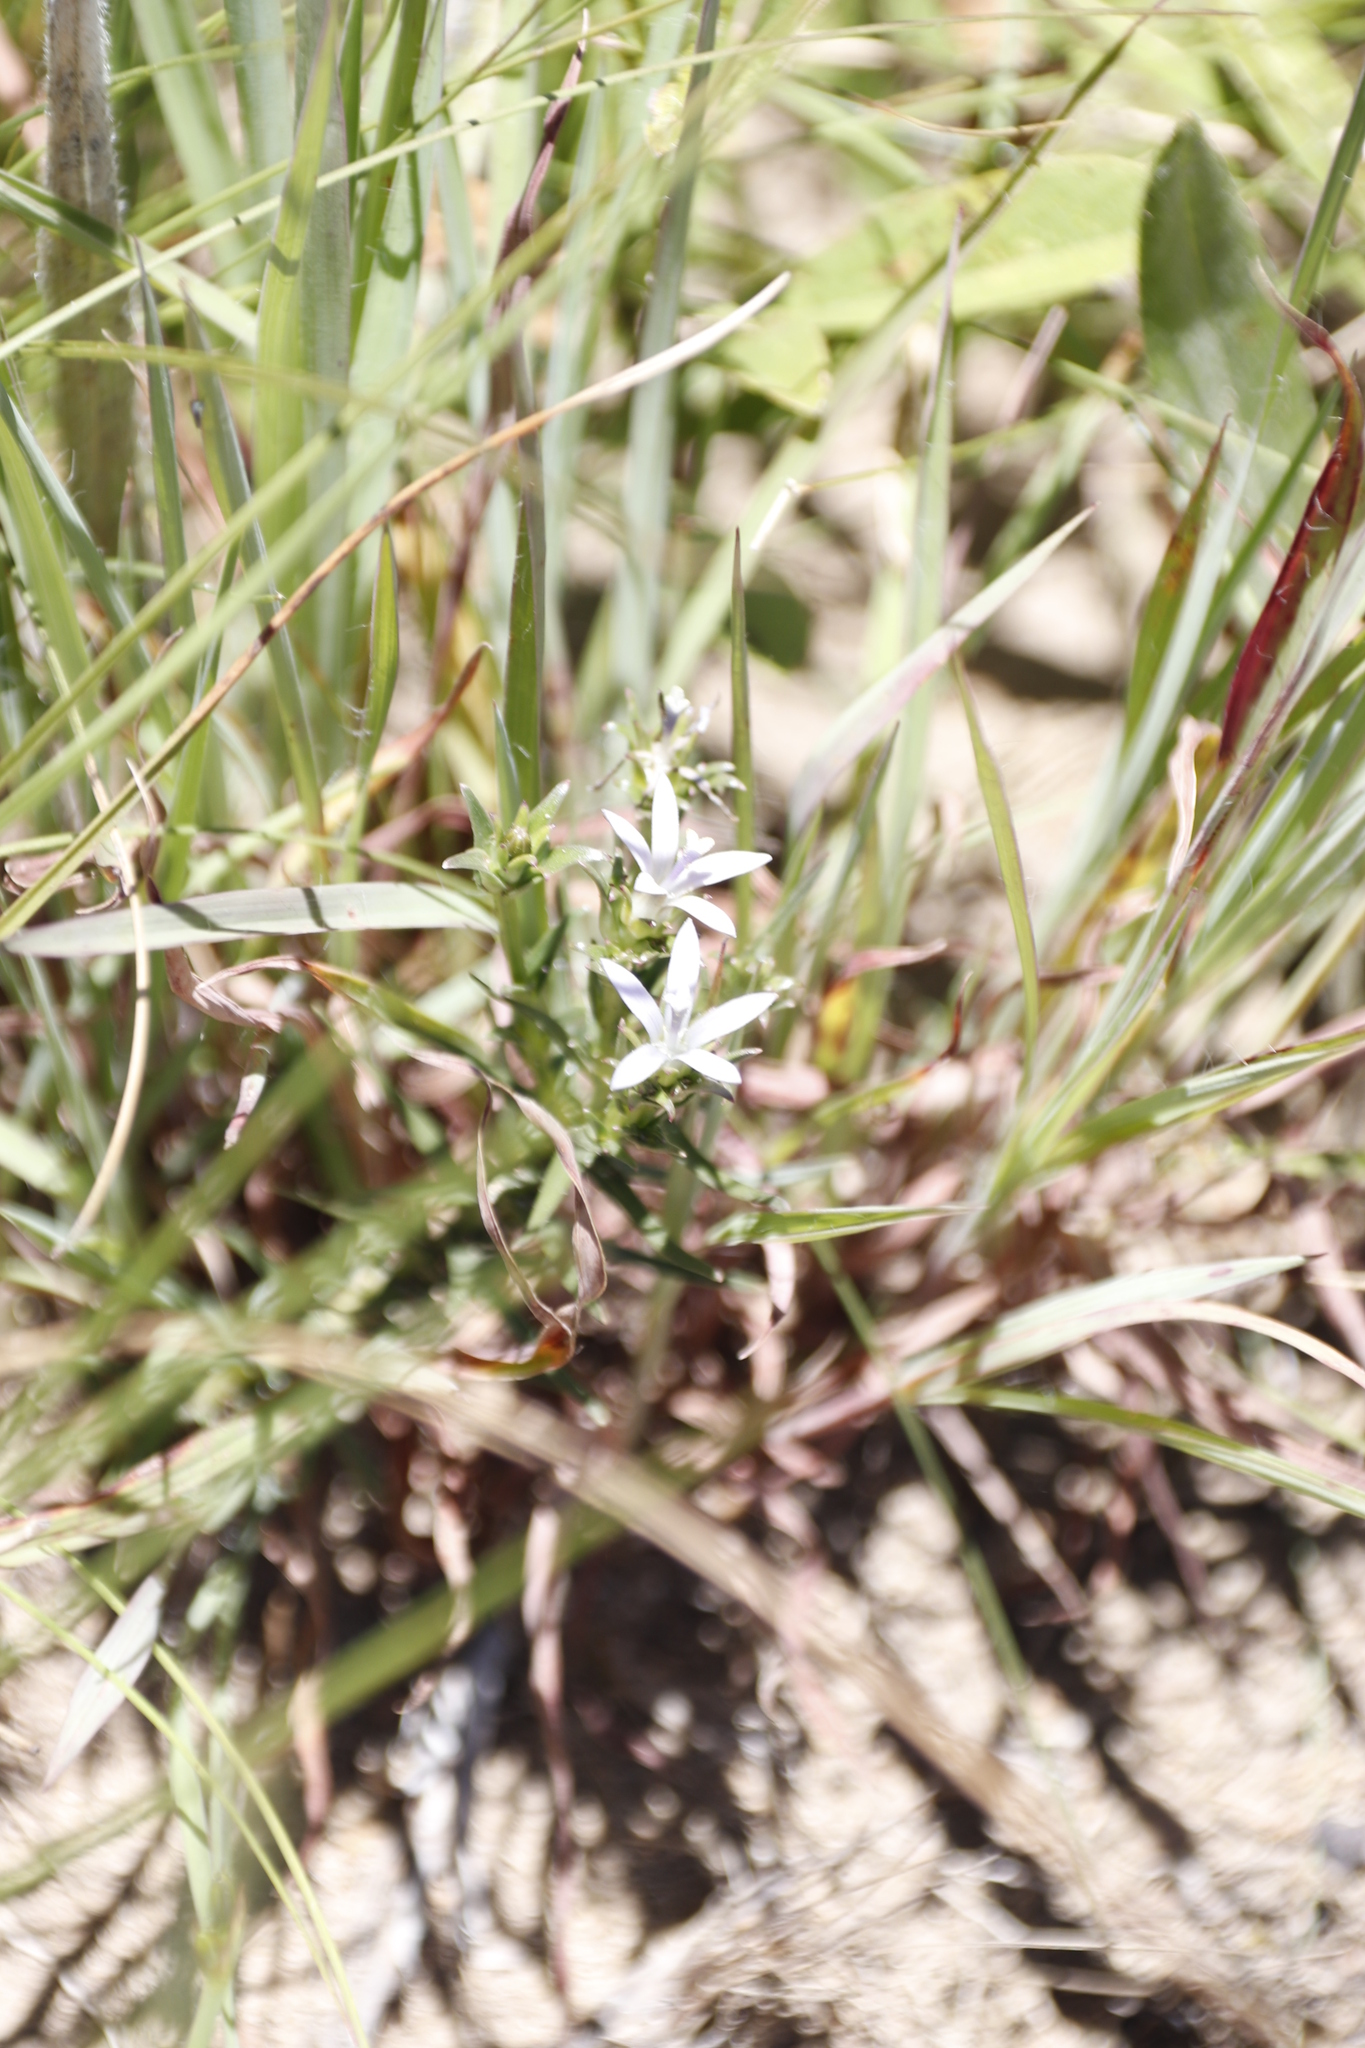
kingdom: Plantae
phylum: Tracheophyta
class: Magnoliopsida
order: Asterales
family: Campanulaceae
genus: Wahlenbergia
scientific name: Wahlenbergia huttonii
